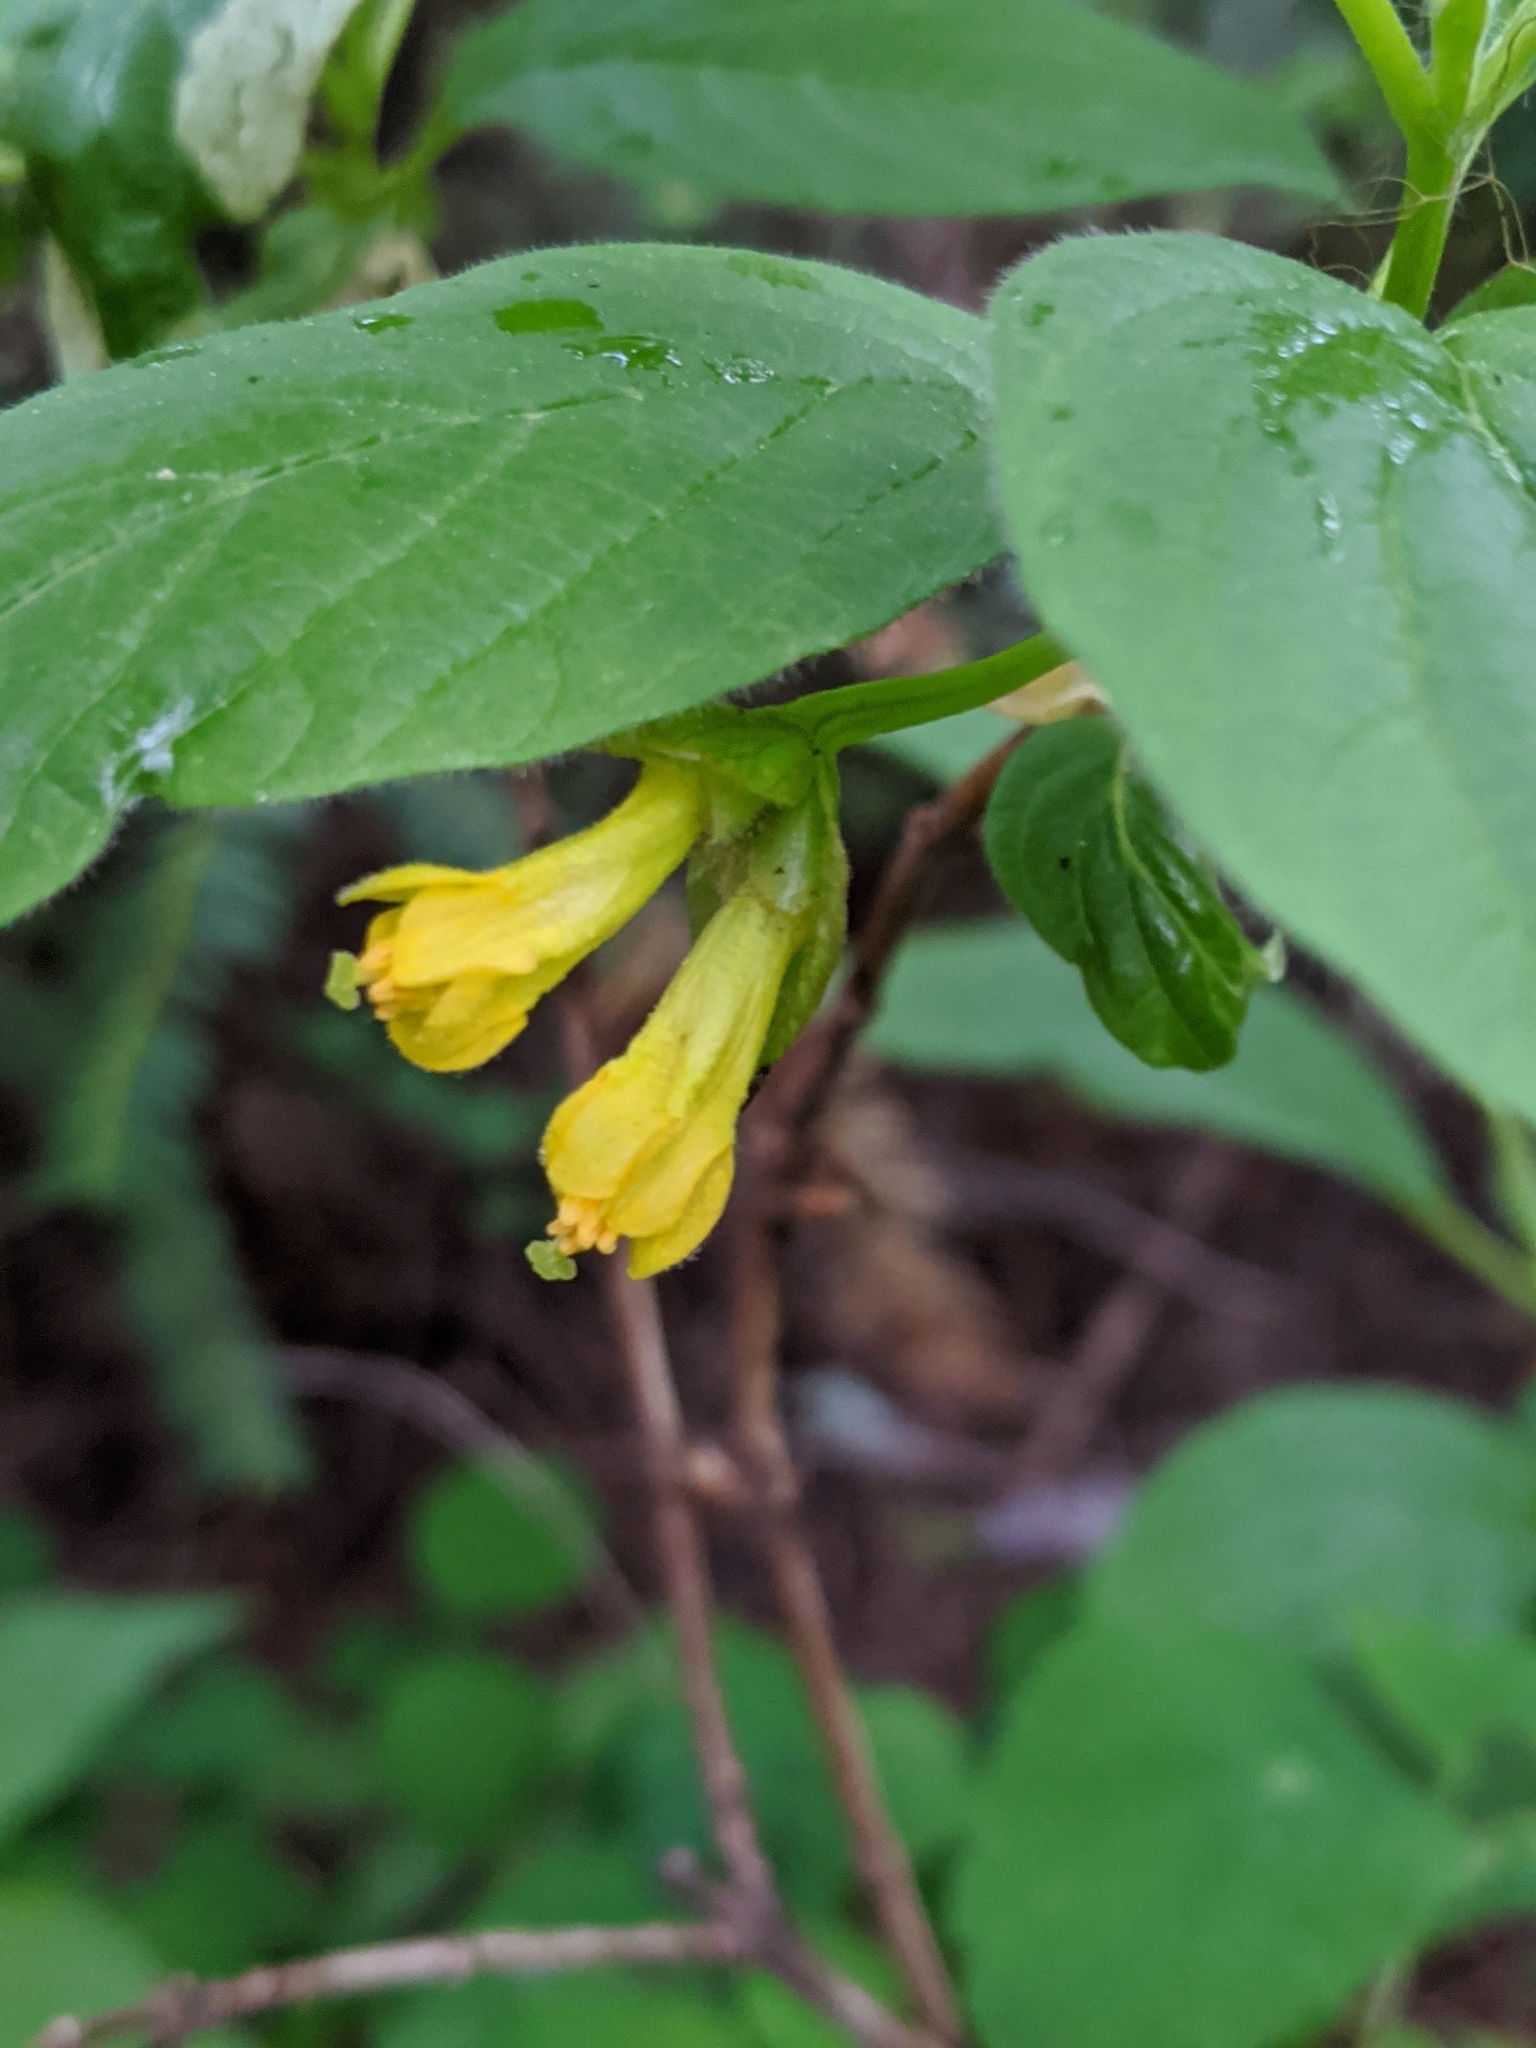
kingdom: Plantae
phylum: Tracheophyta
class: Magnoliopsida
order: Dipsacales
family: Caprifoliaceae
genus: Lonicera
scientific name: Lonicera involucrata
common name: Californian honeysuckle
